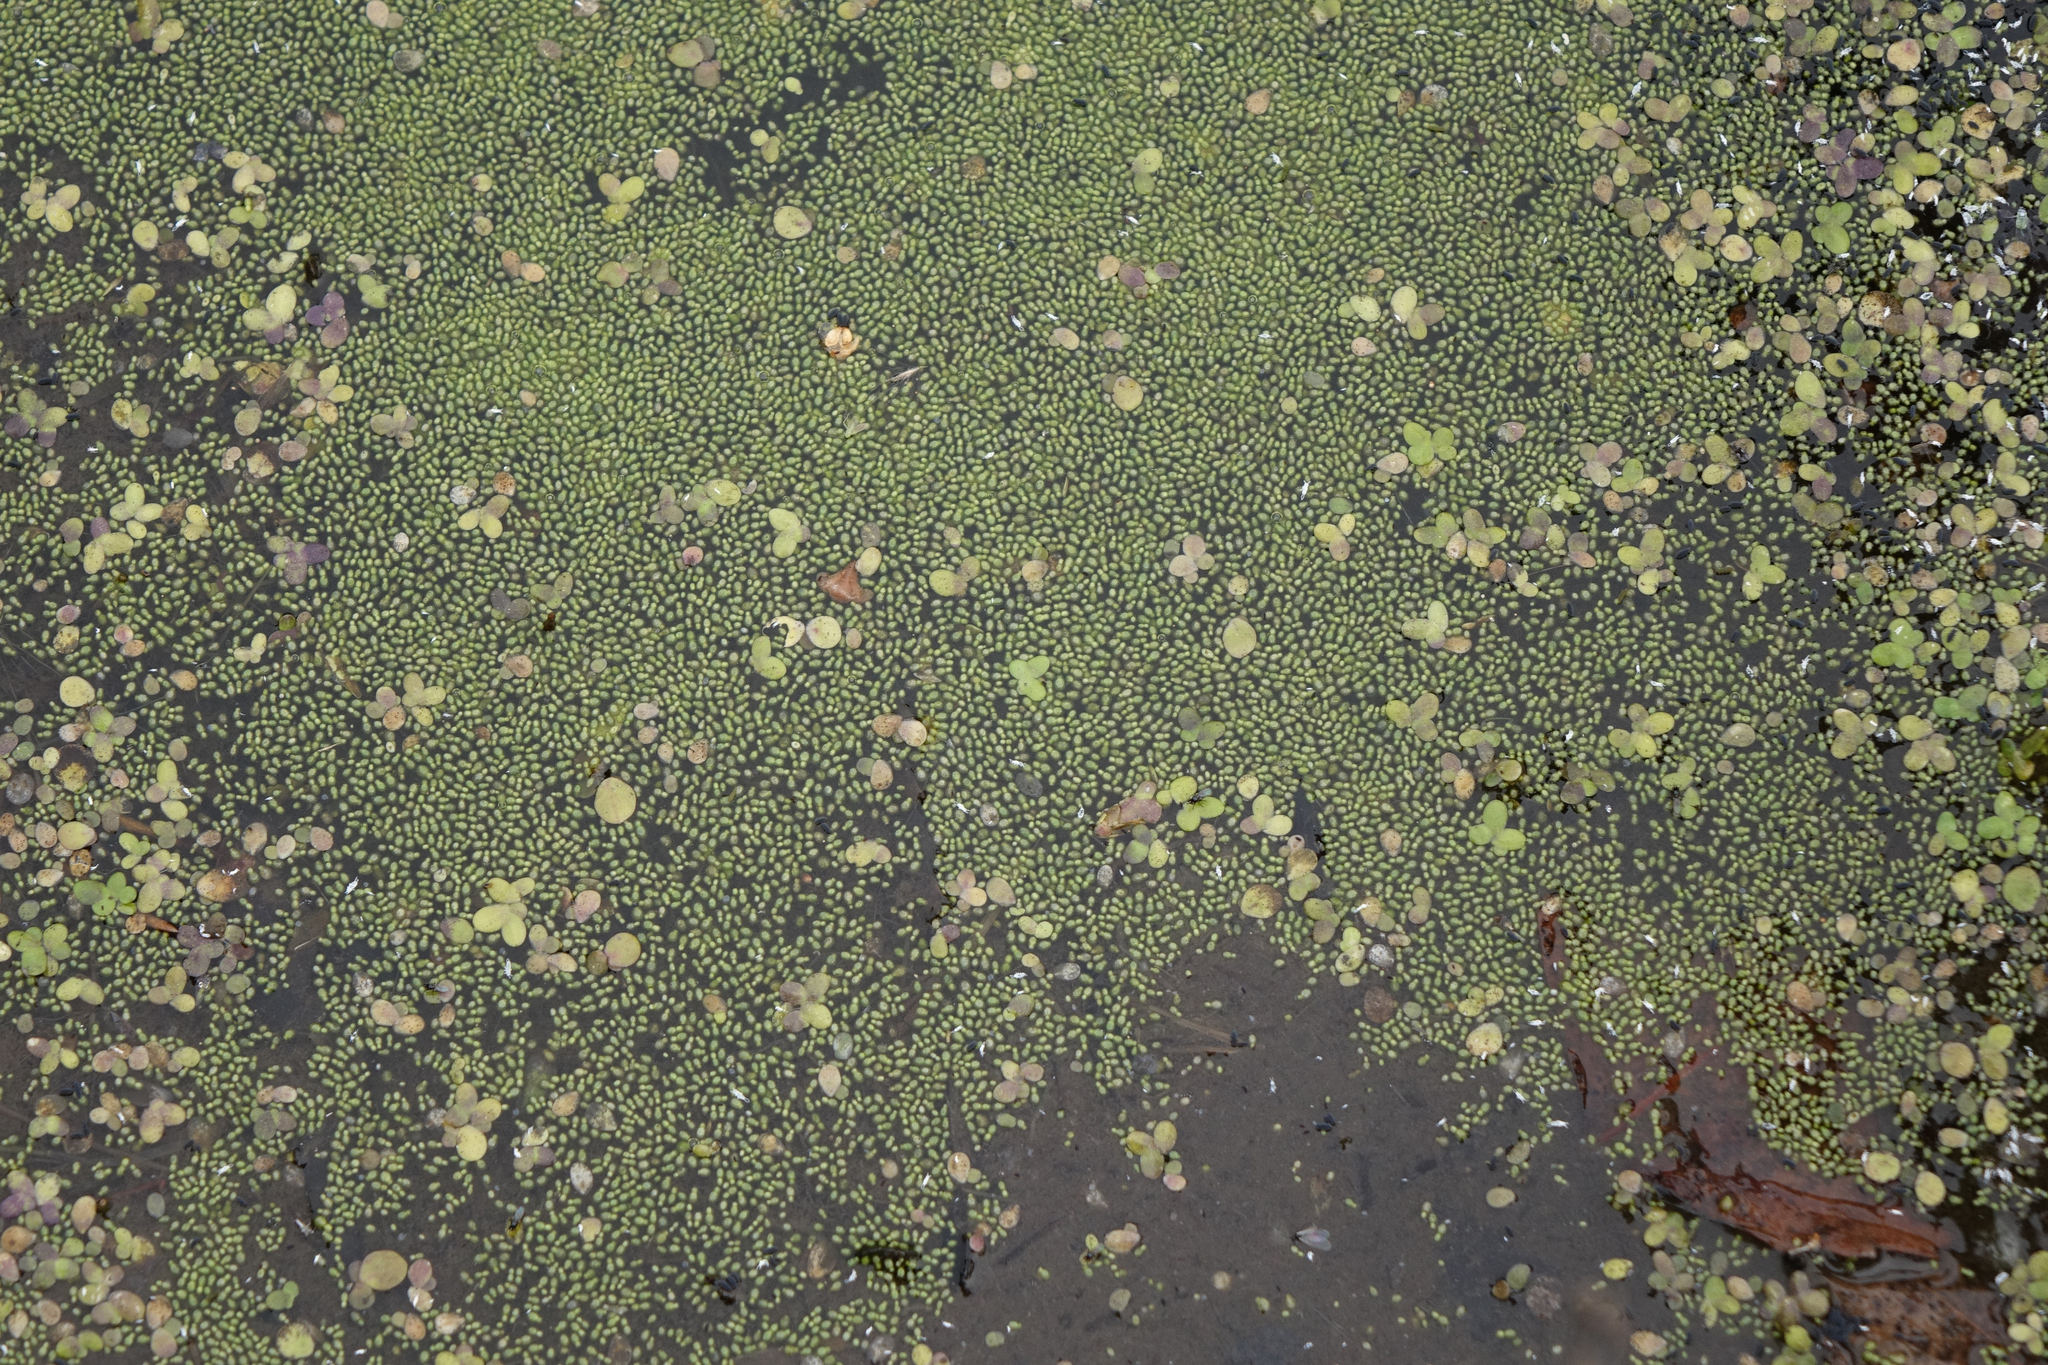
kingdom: Plantae
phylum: Tracheophyta
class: Liliopsida
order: Alismatales
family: Araceae
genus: Wolffia
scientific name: Wolffia arrhiza
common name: Rootless duckweed
